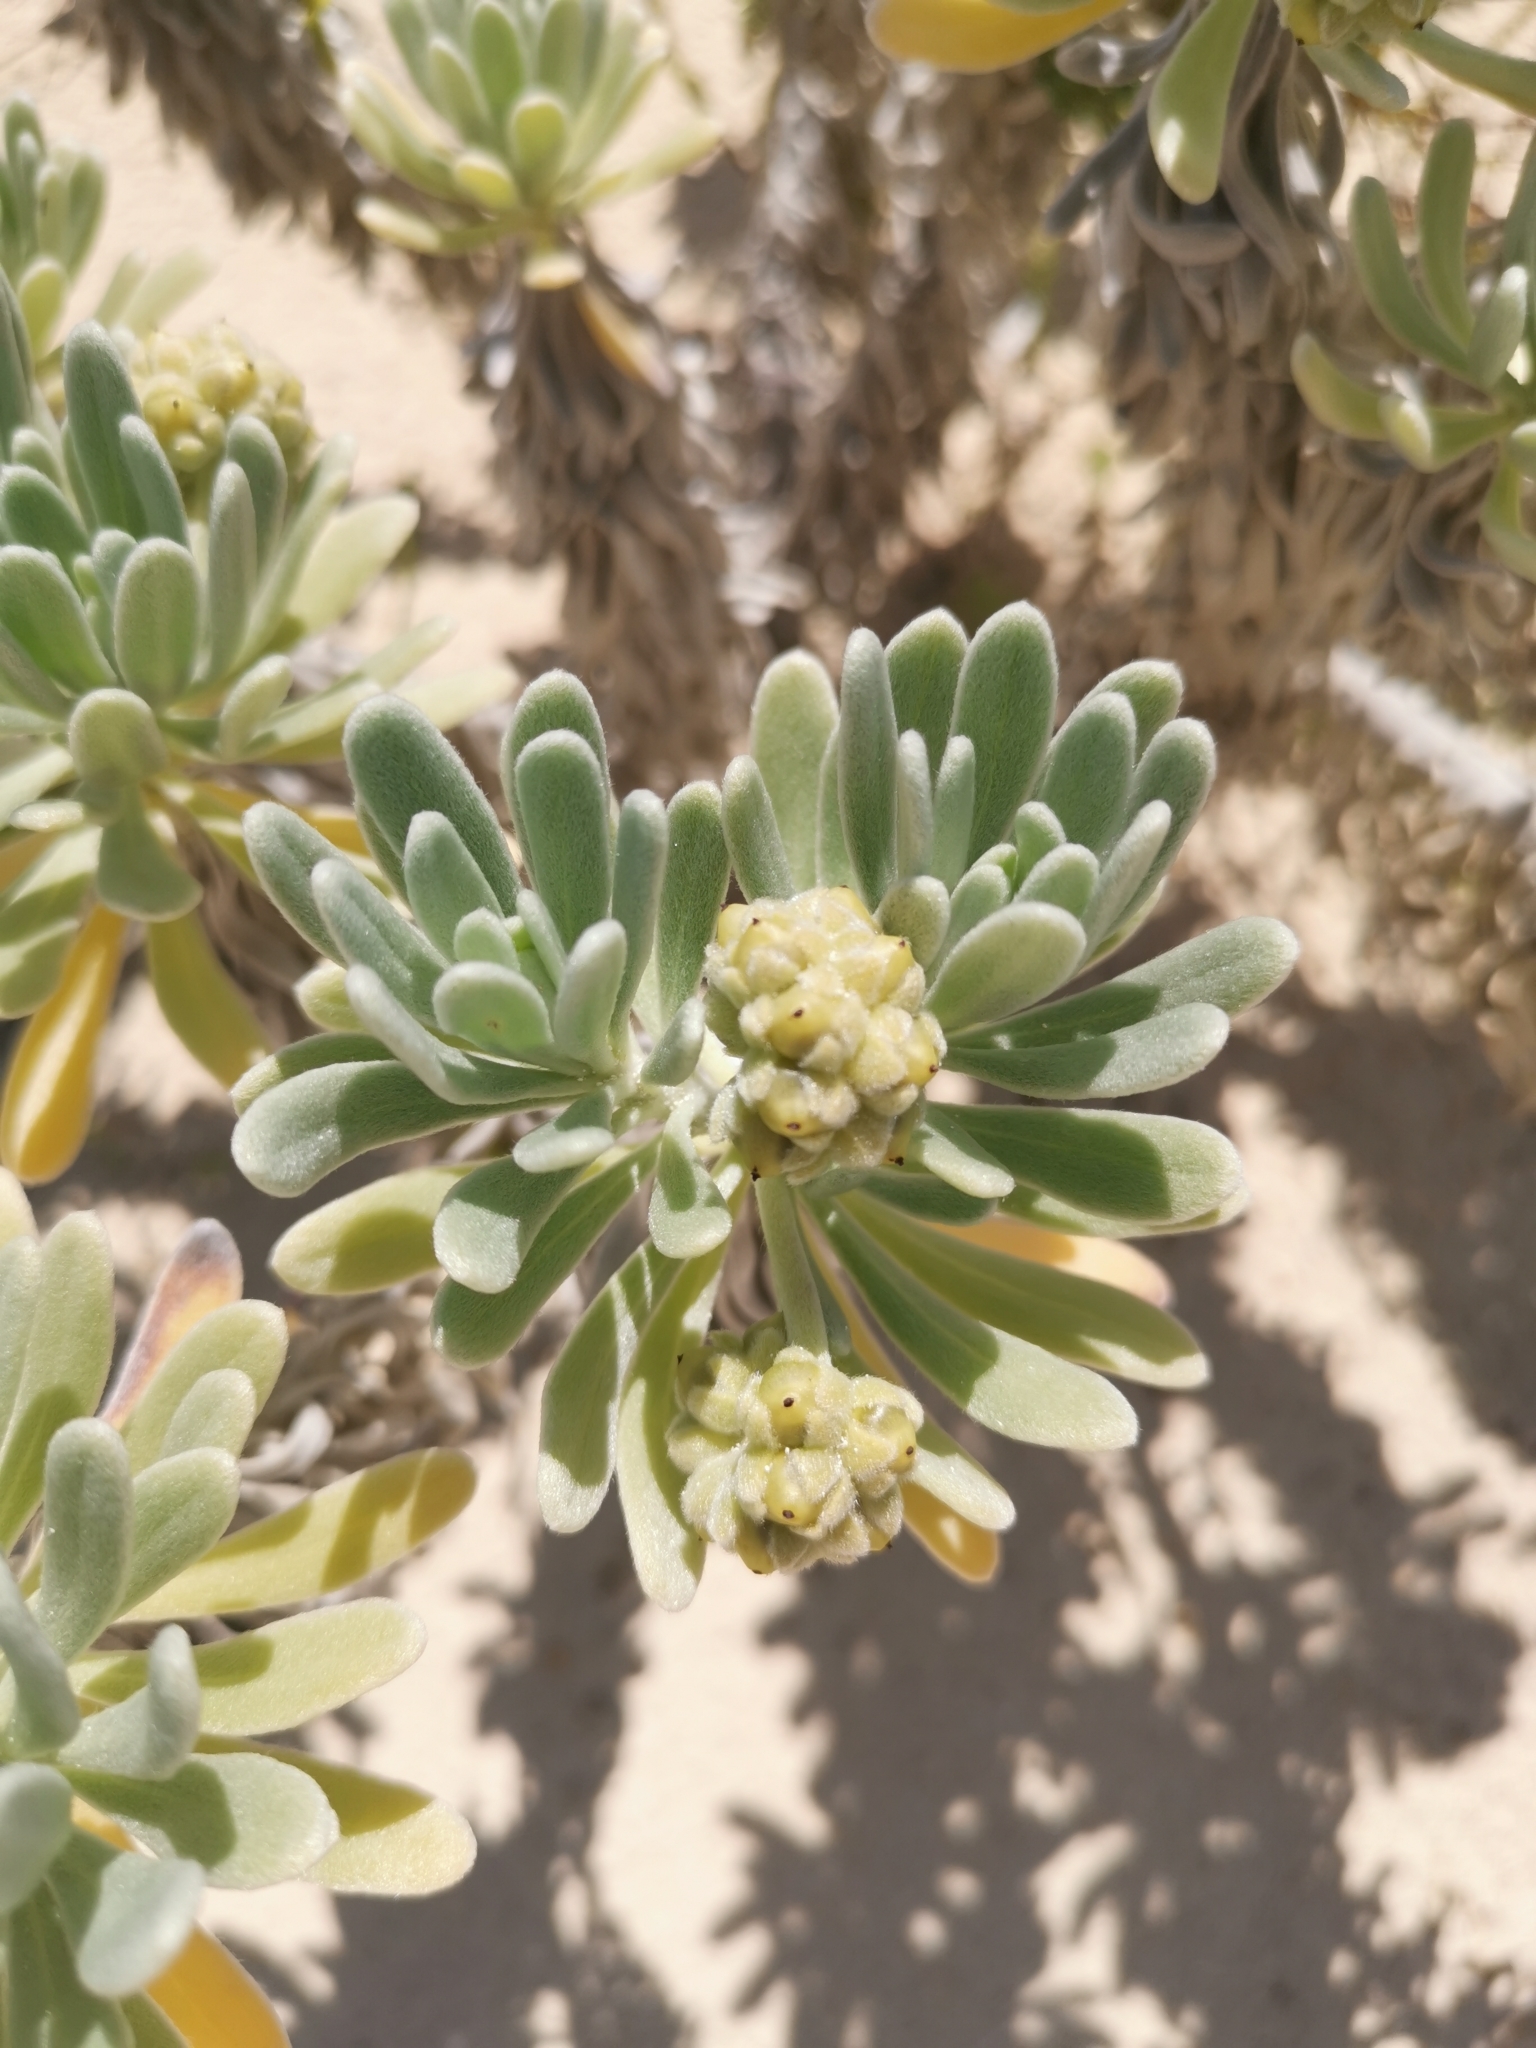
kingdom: Plantae
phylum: Tracheophyta
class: Magnoliopsida
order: Boraginales
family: Heliotropiaceae
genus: Tournefortia
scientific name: Tournefortia gnaphalodes
